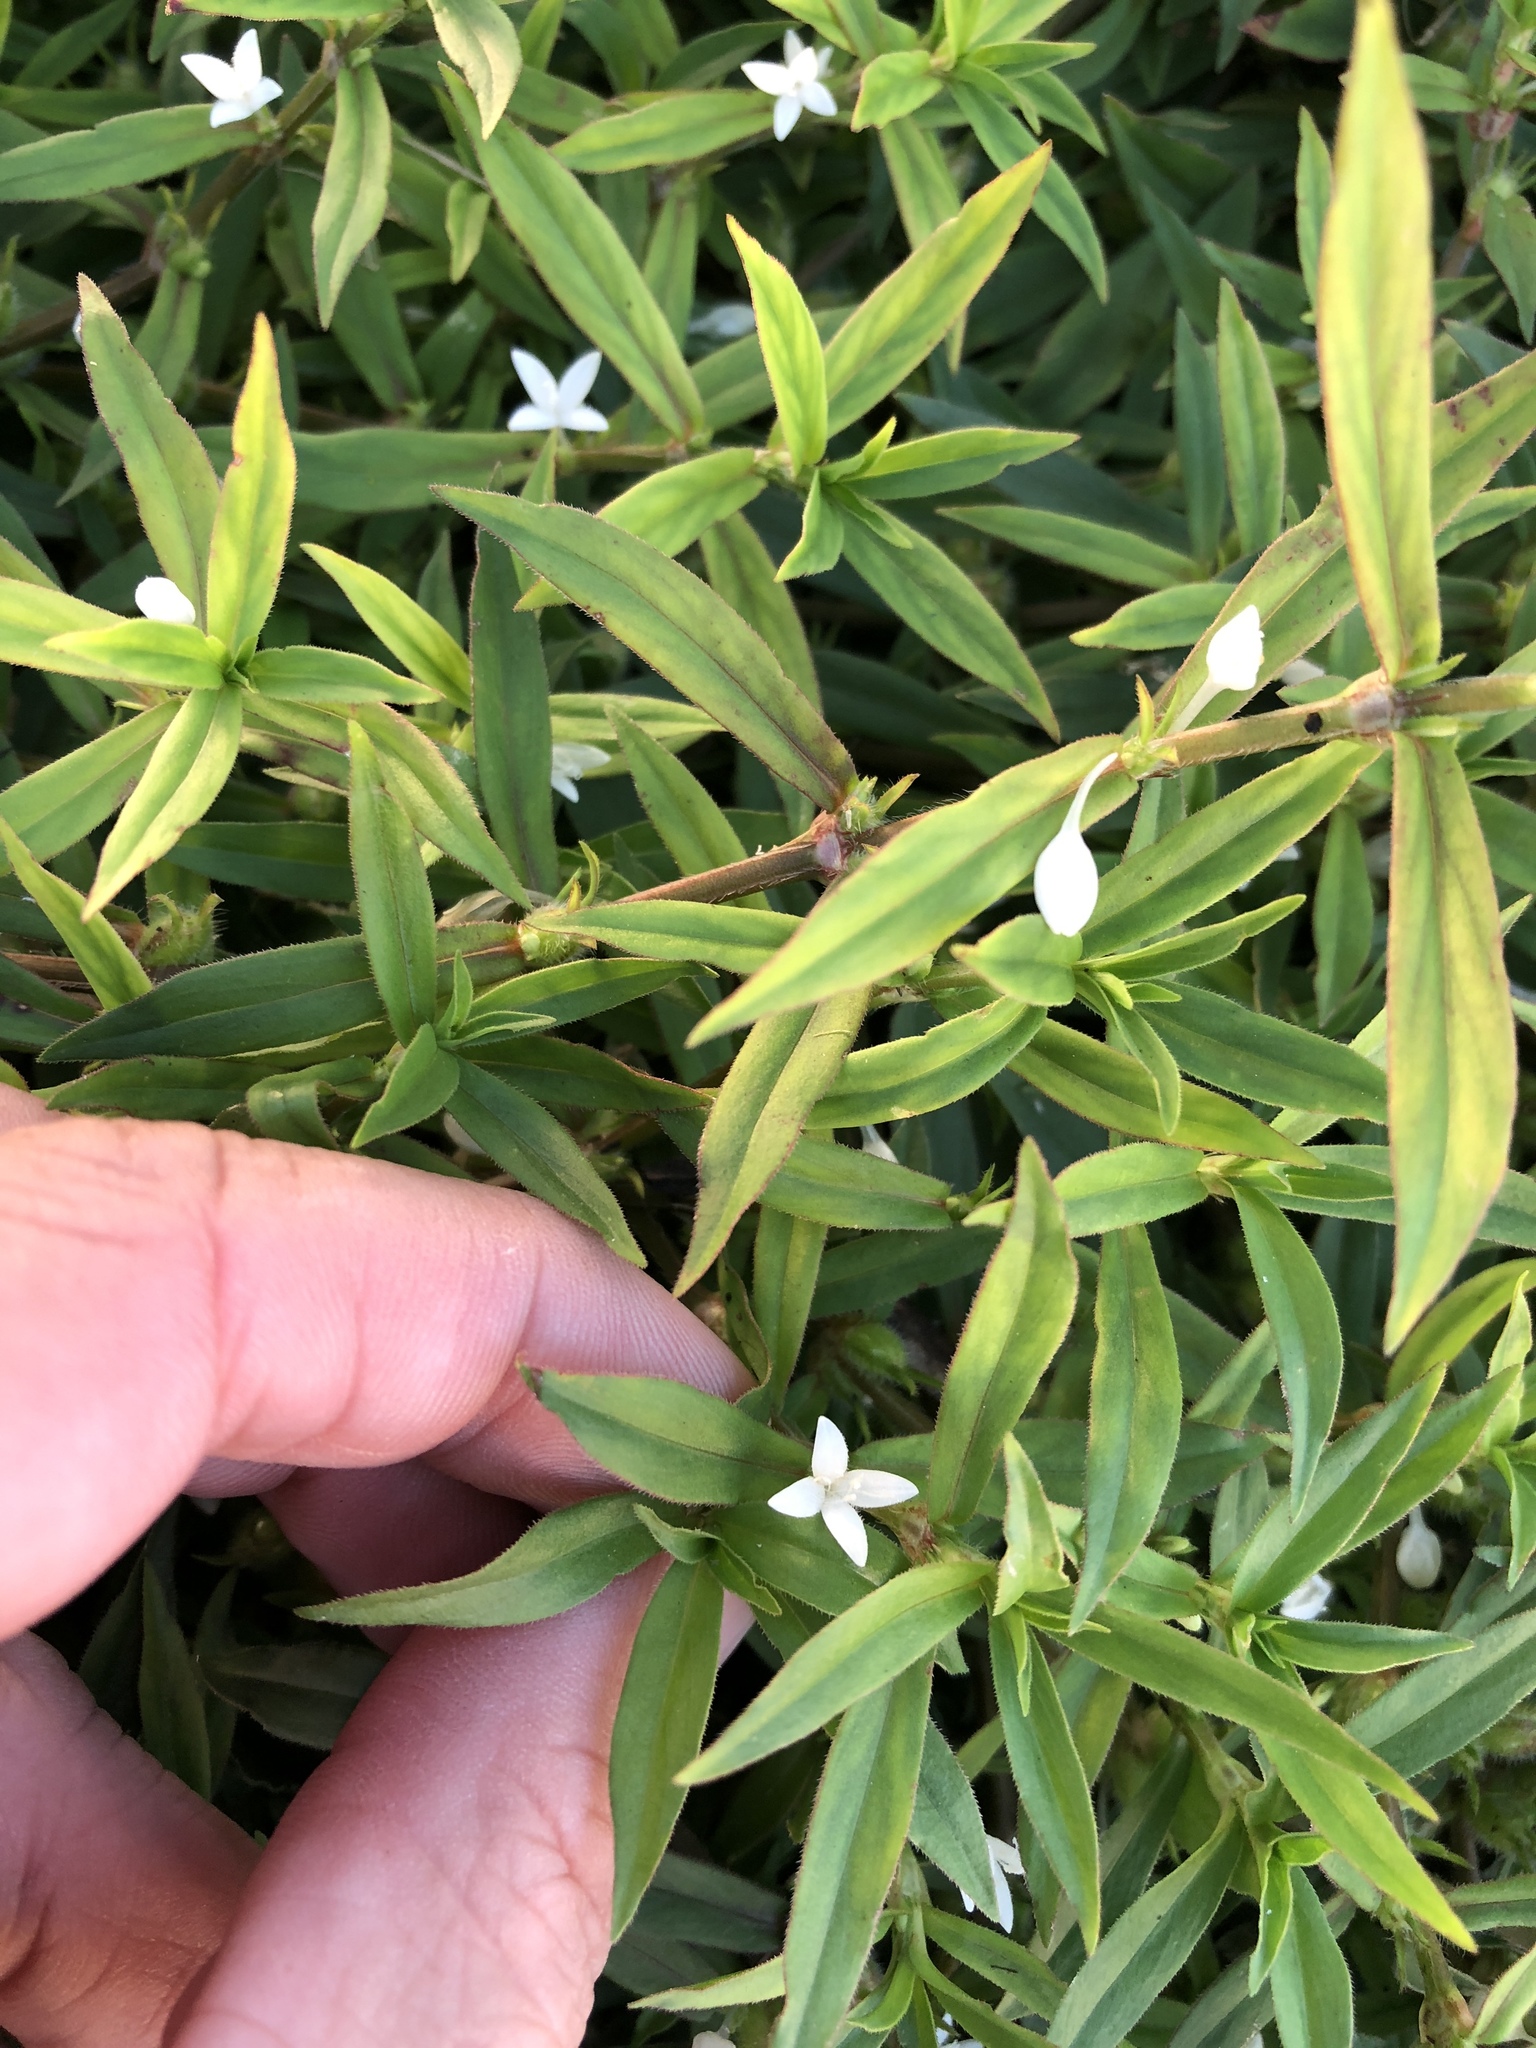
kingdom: Plantae
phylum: Tracheophyta
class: Magnoliopsida
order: Gentianales
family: Rubiaceae
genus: Diodia
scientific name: Diodia virginiana
